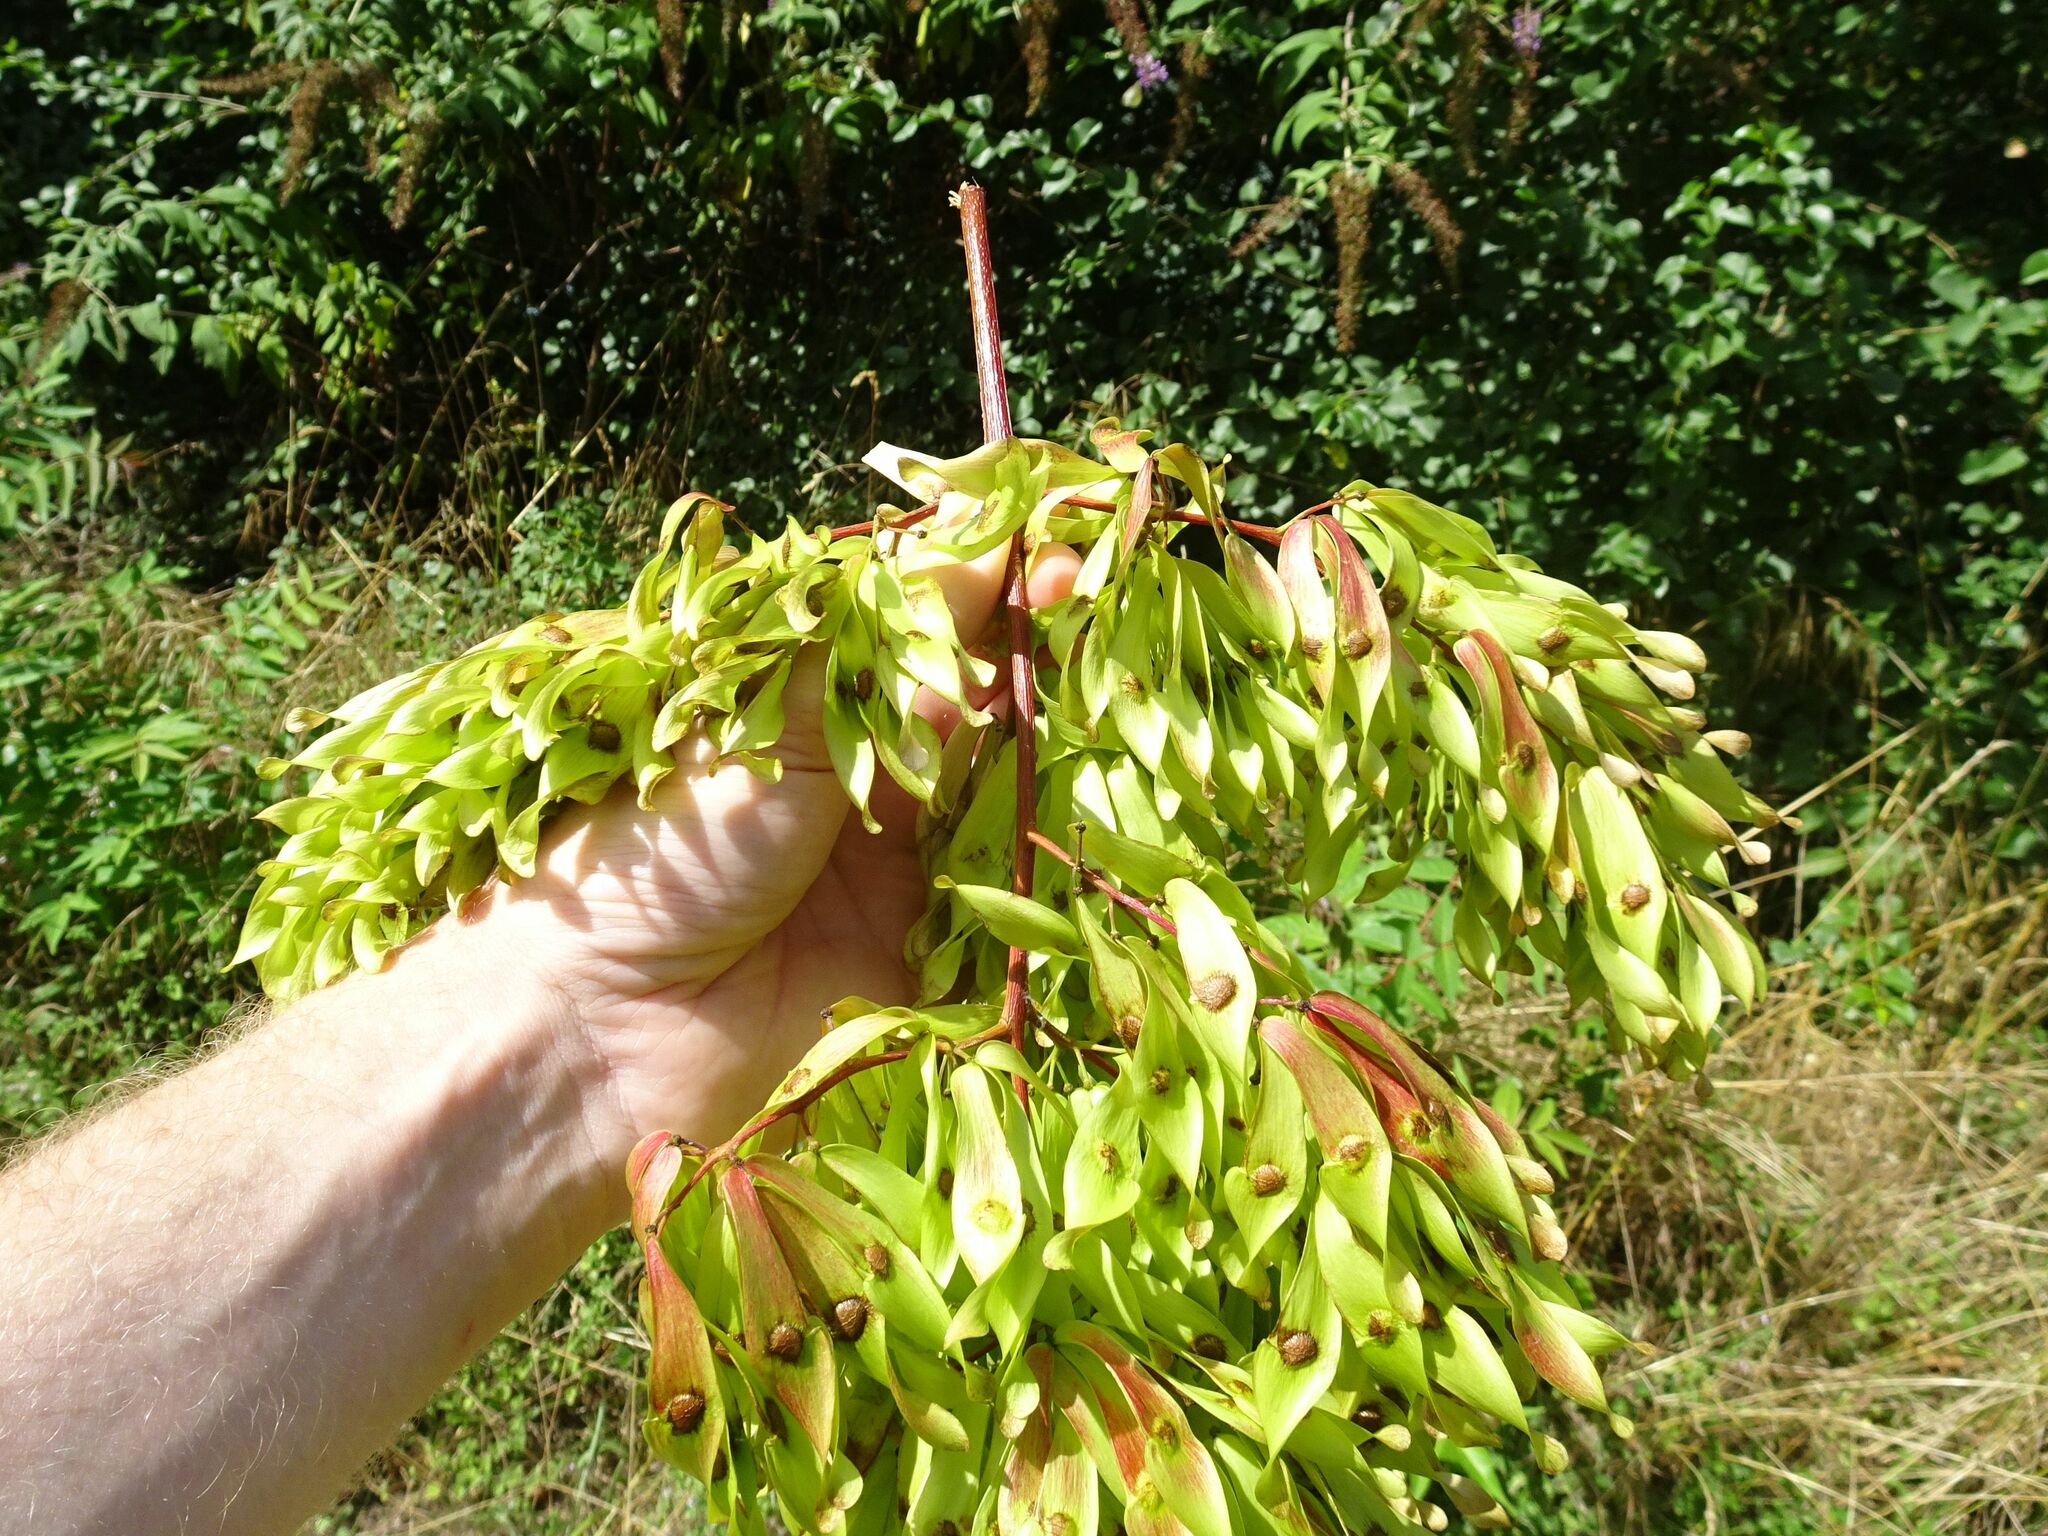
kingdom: Plantae
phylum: Tracheophyta
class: Magnoliopsida
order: Sapindales
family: Simaroubaceae
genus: Ailanthus
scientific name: Ailanthus altissima
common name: Tree-of-heaven
